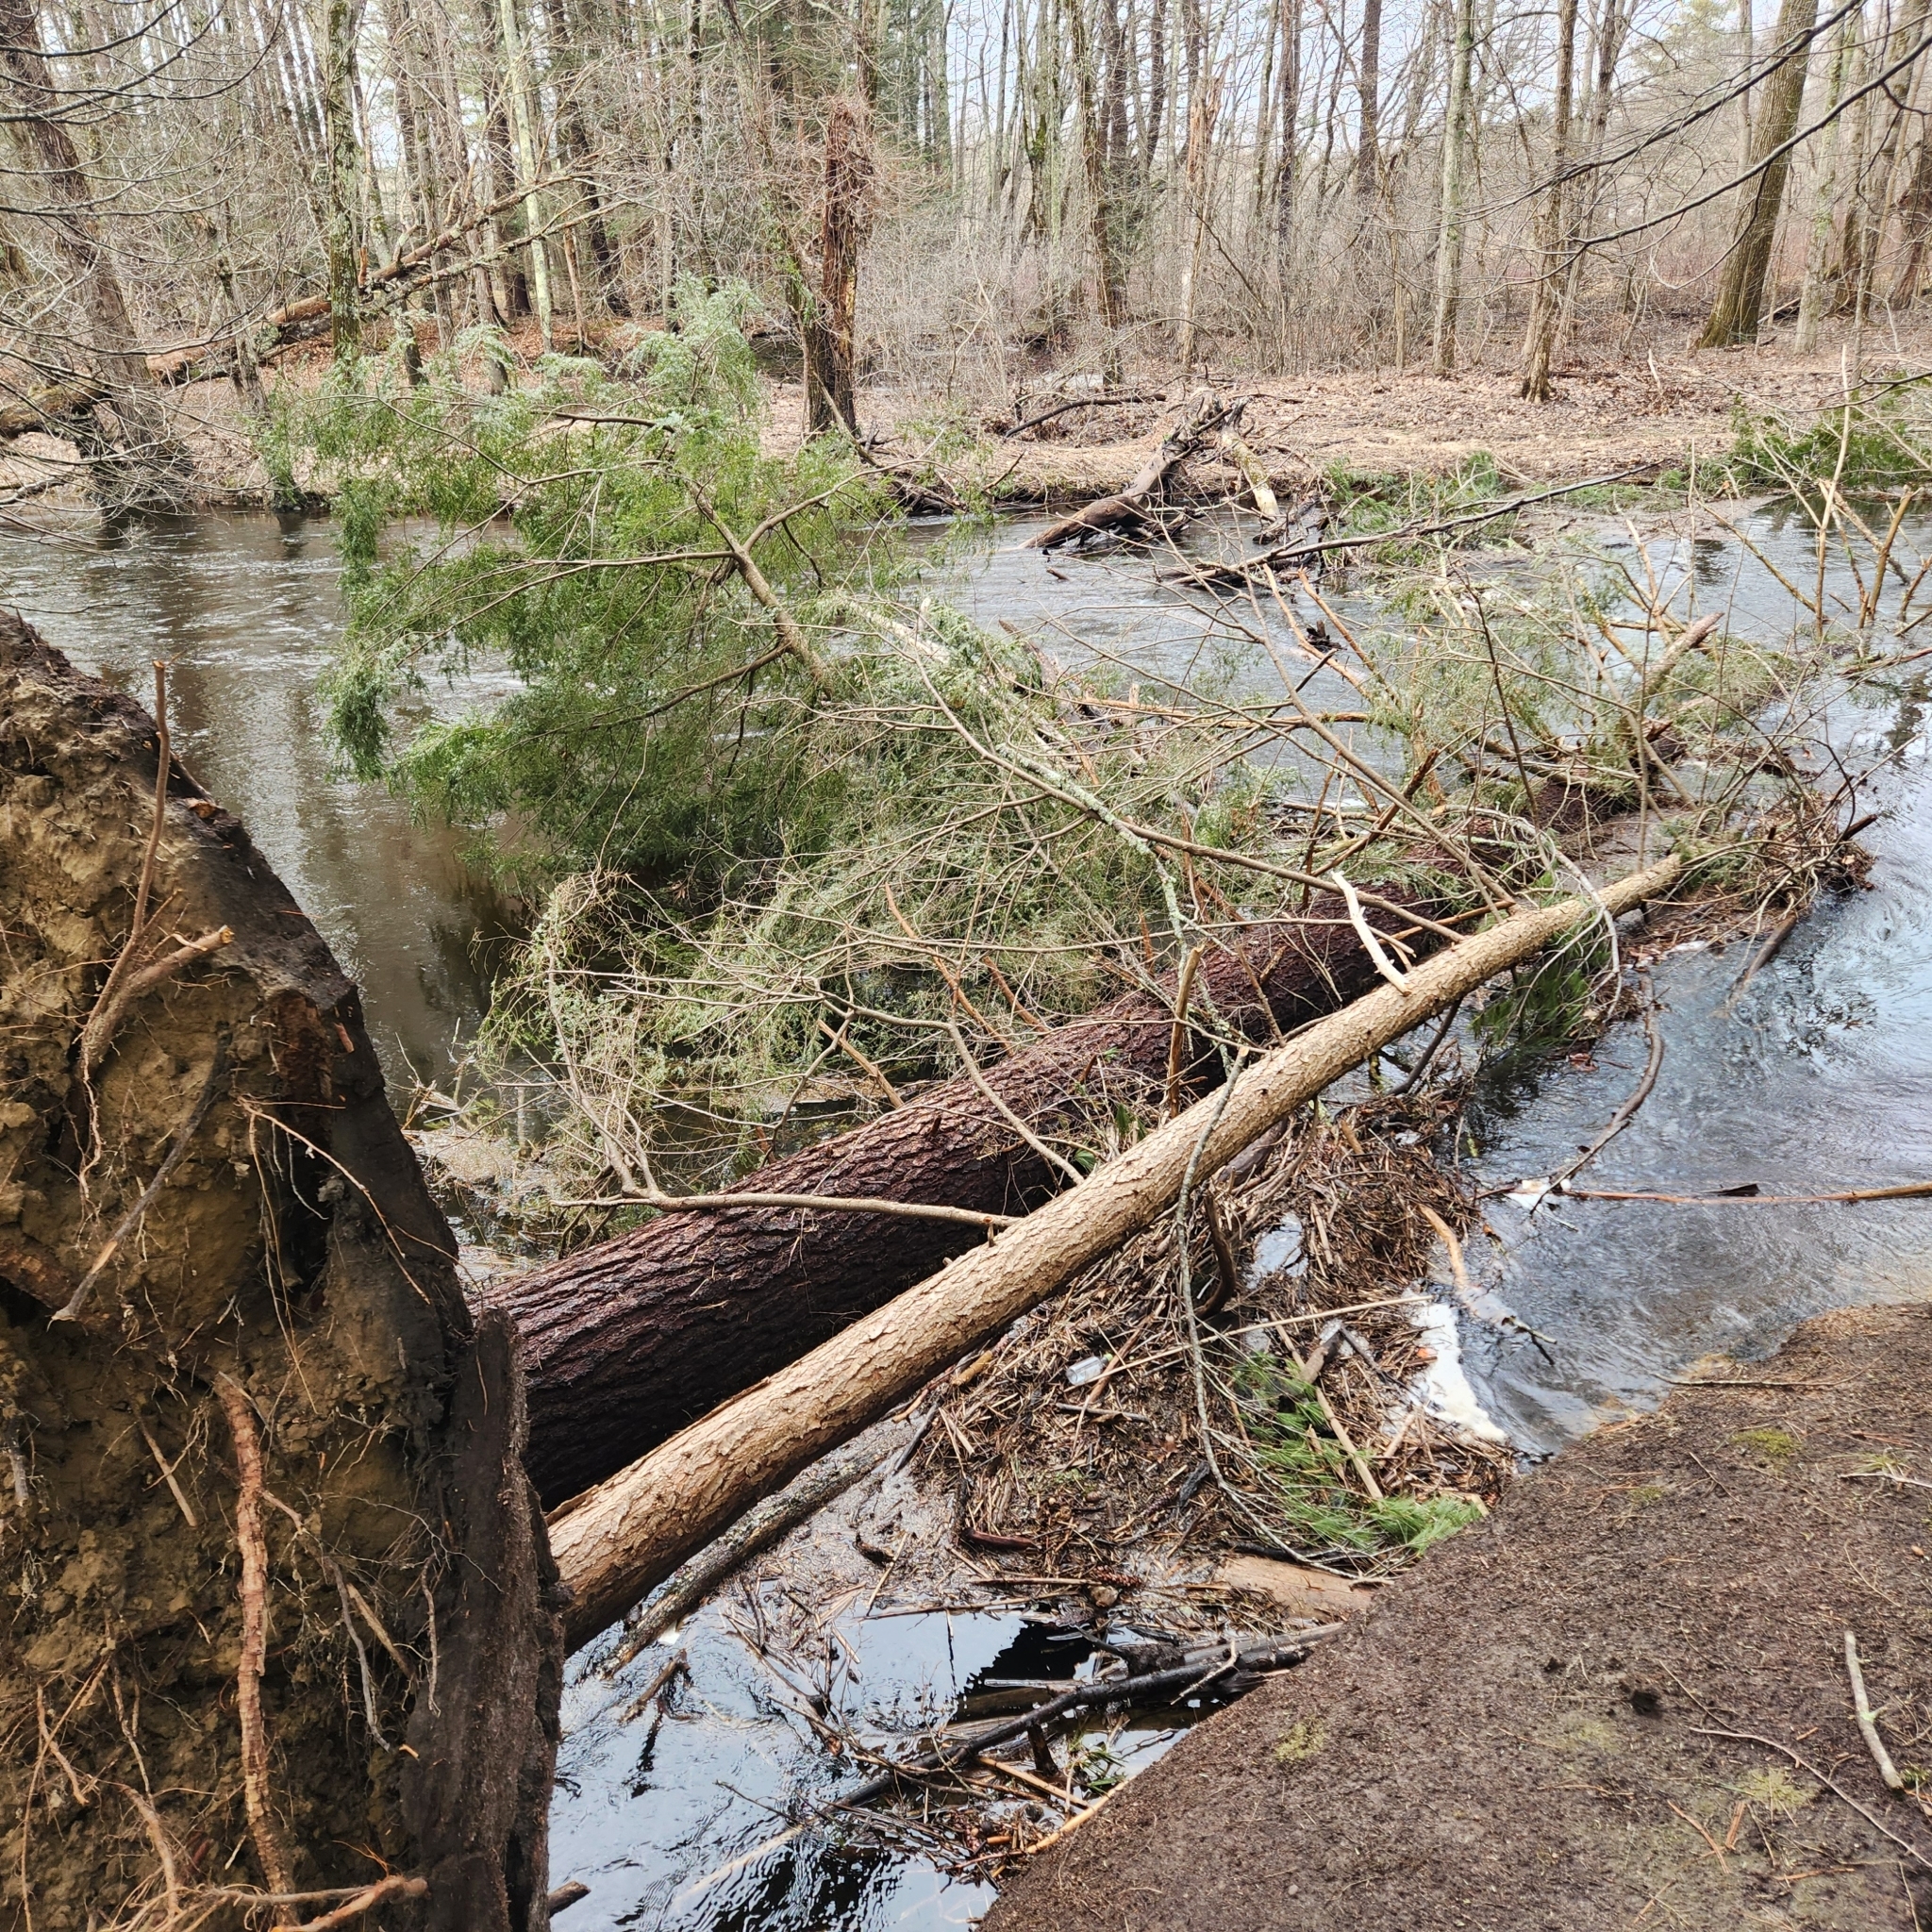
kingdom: Plantae
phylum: Tracheophyta
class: Pinopsida
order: Pinales
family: Pinaceae
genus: Tsuga
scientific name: Tsuga canadensis
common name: Eastern hemlock
